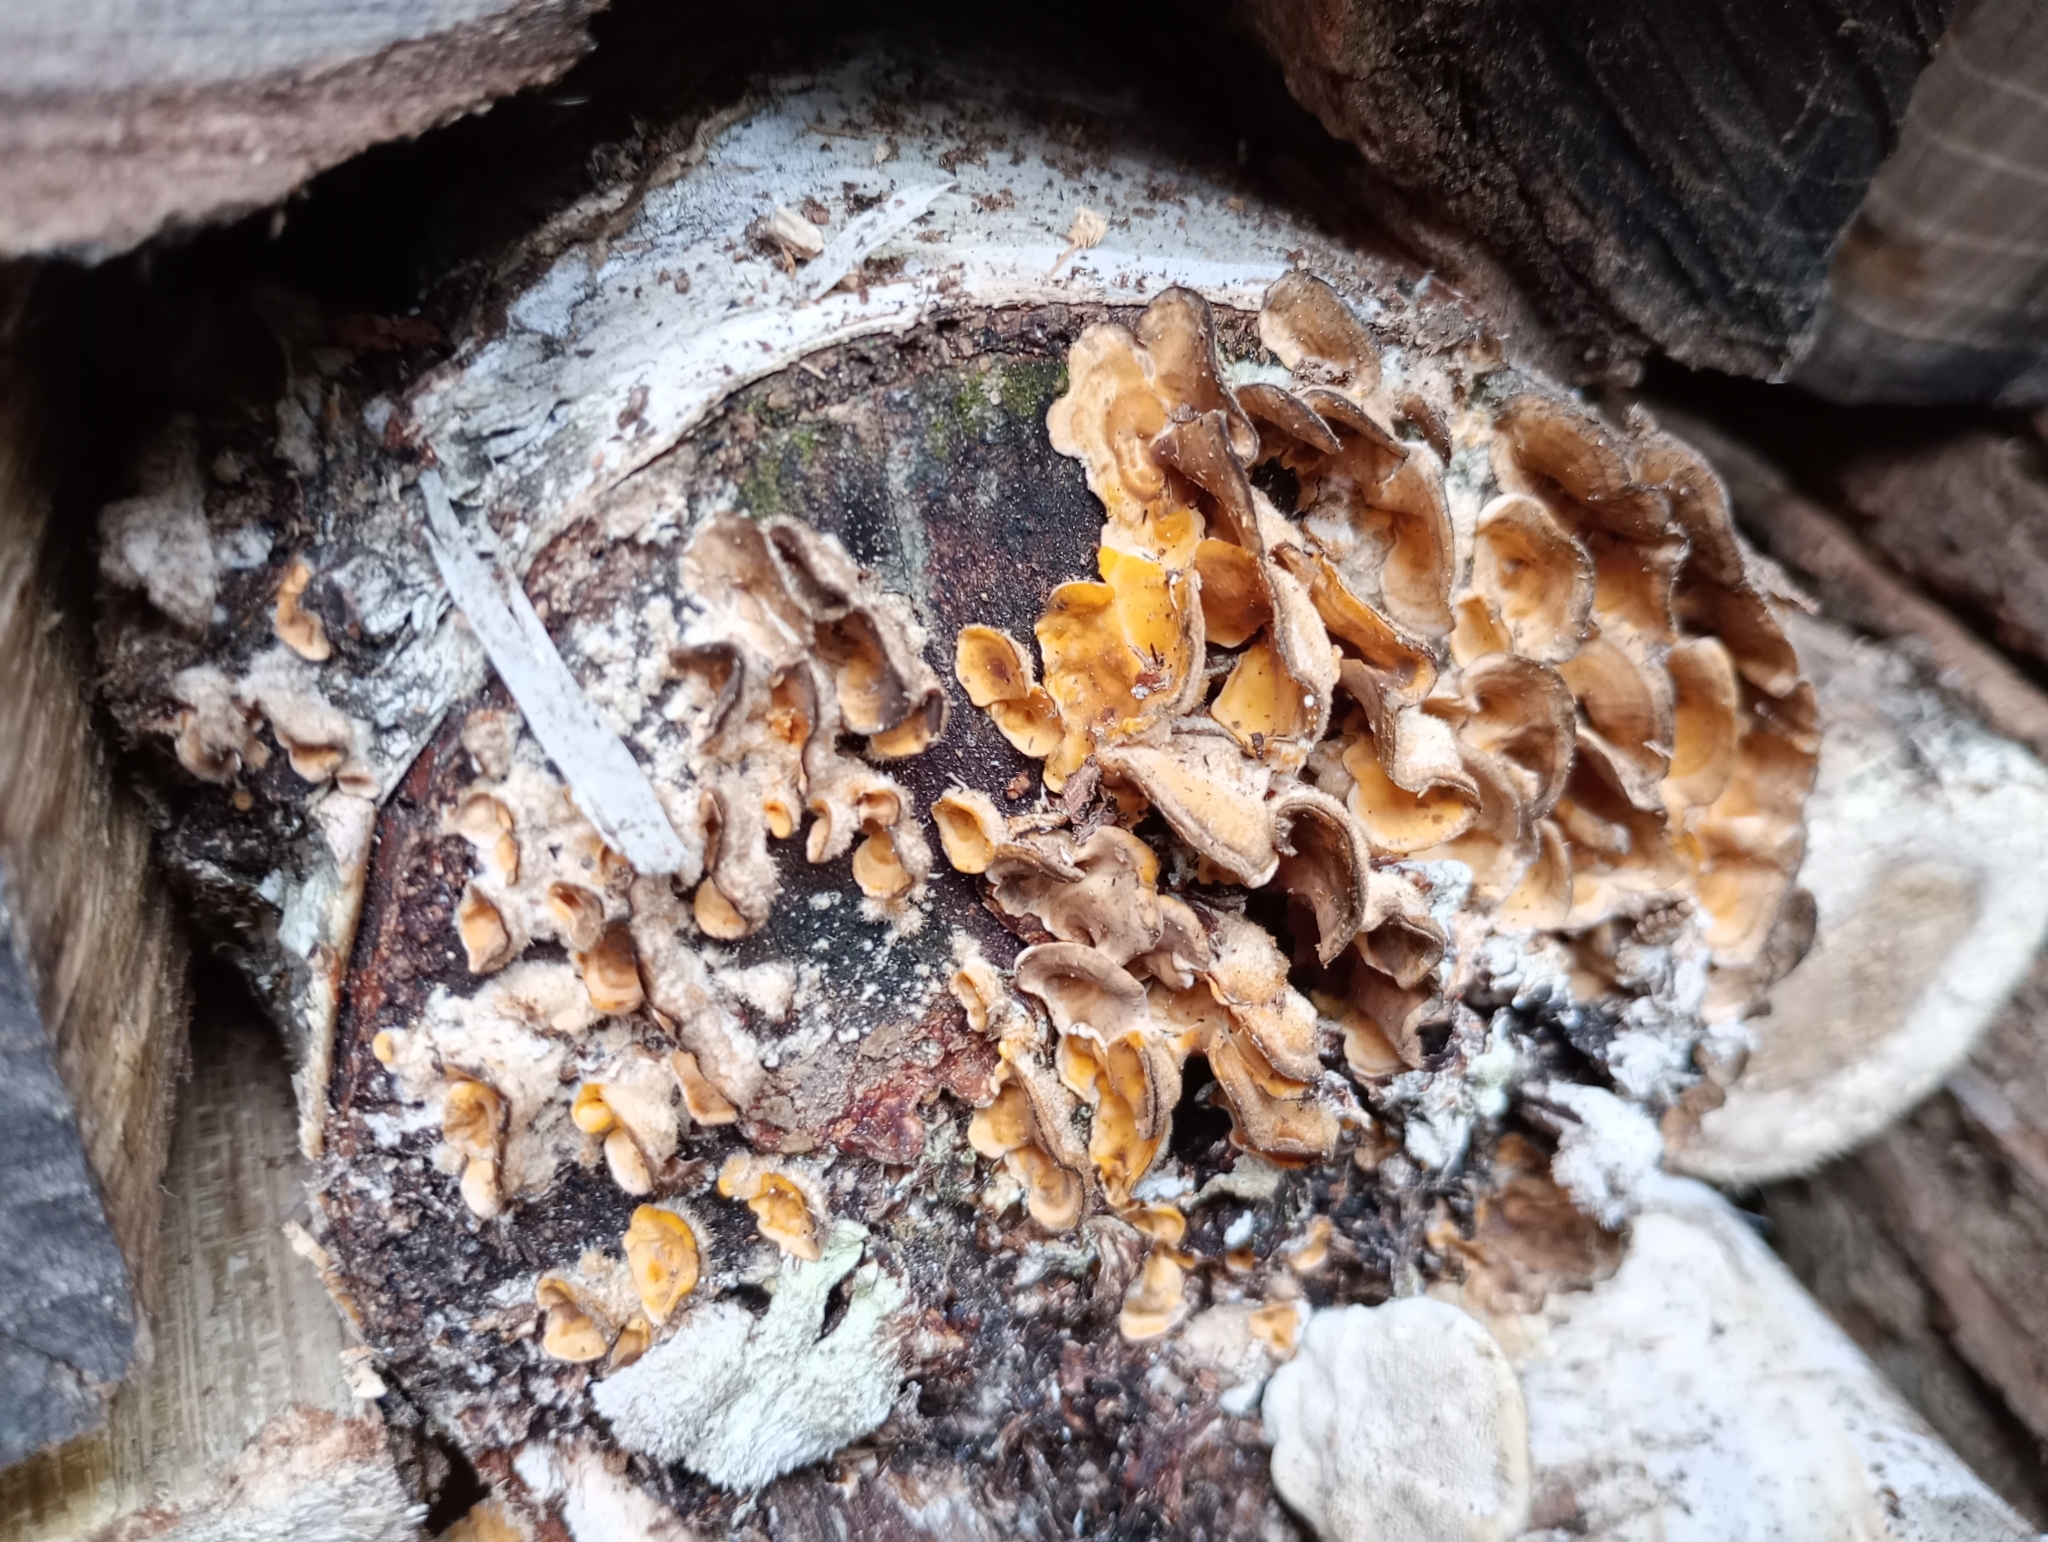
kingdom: Fungi
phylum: Basidiomycota
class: Agaricomycetes
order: Russulales
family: Stereaceae
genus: Stereum
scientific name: Stereum hirsutum
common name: Hairy curtain crust
